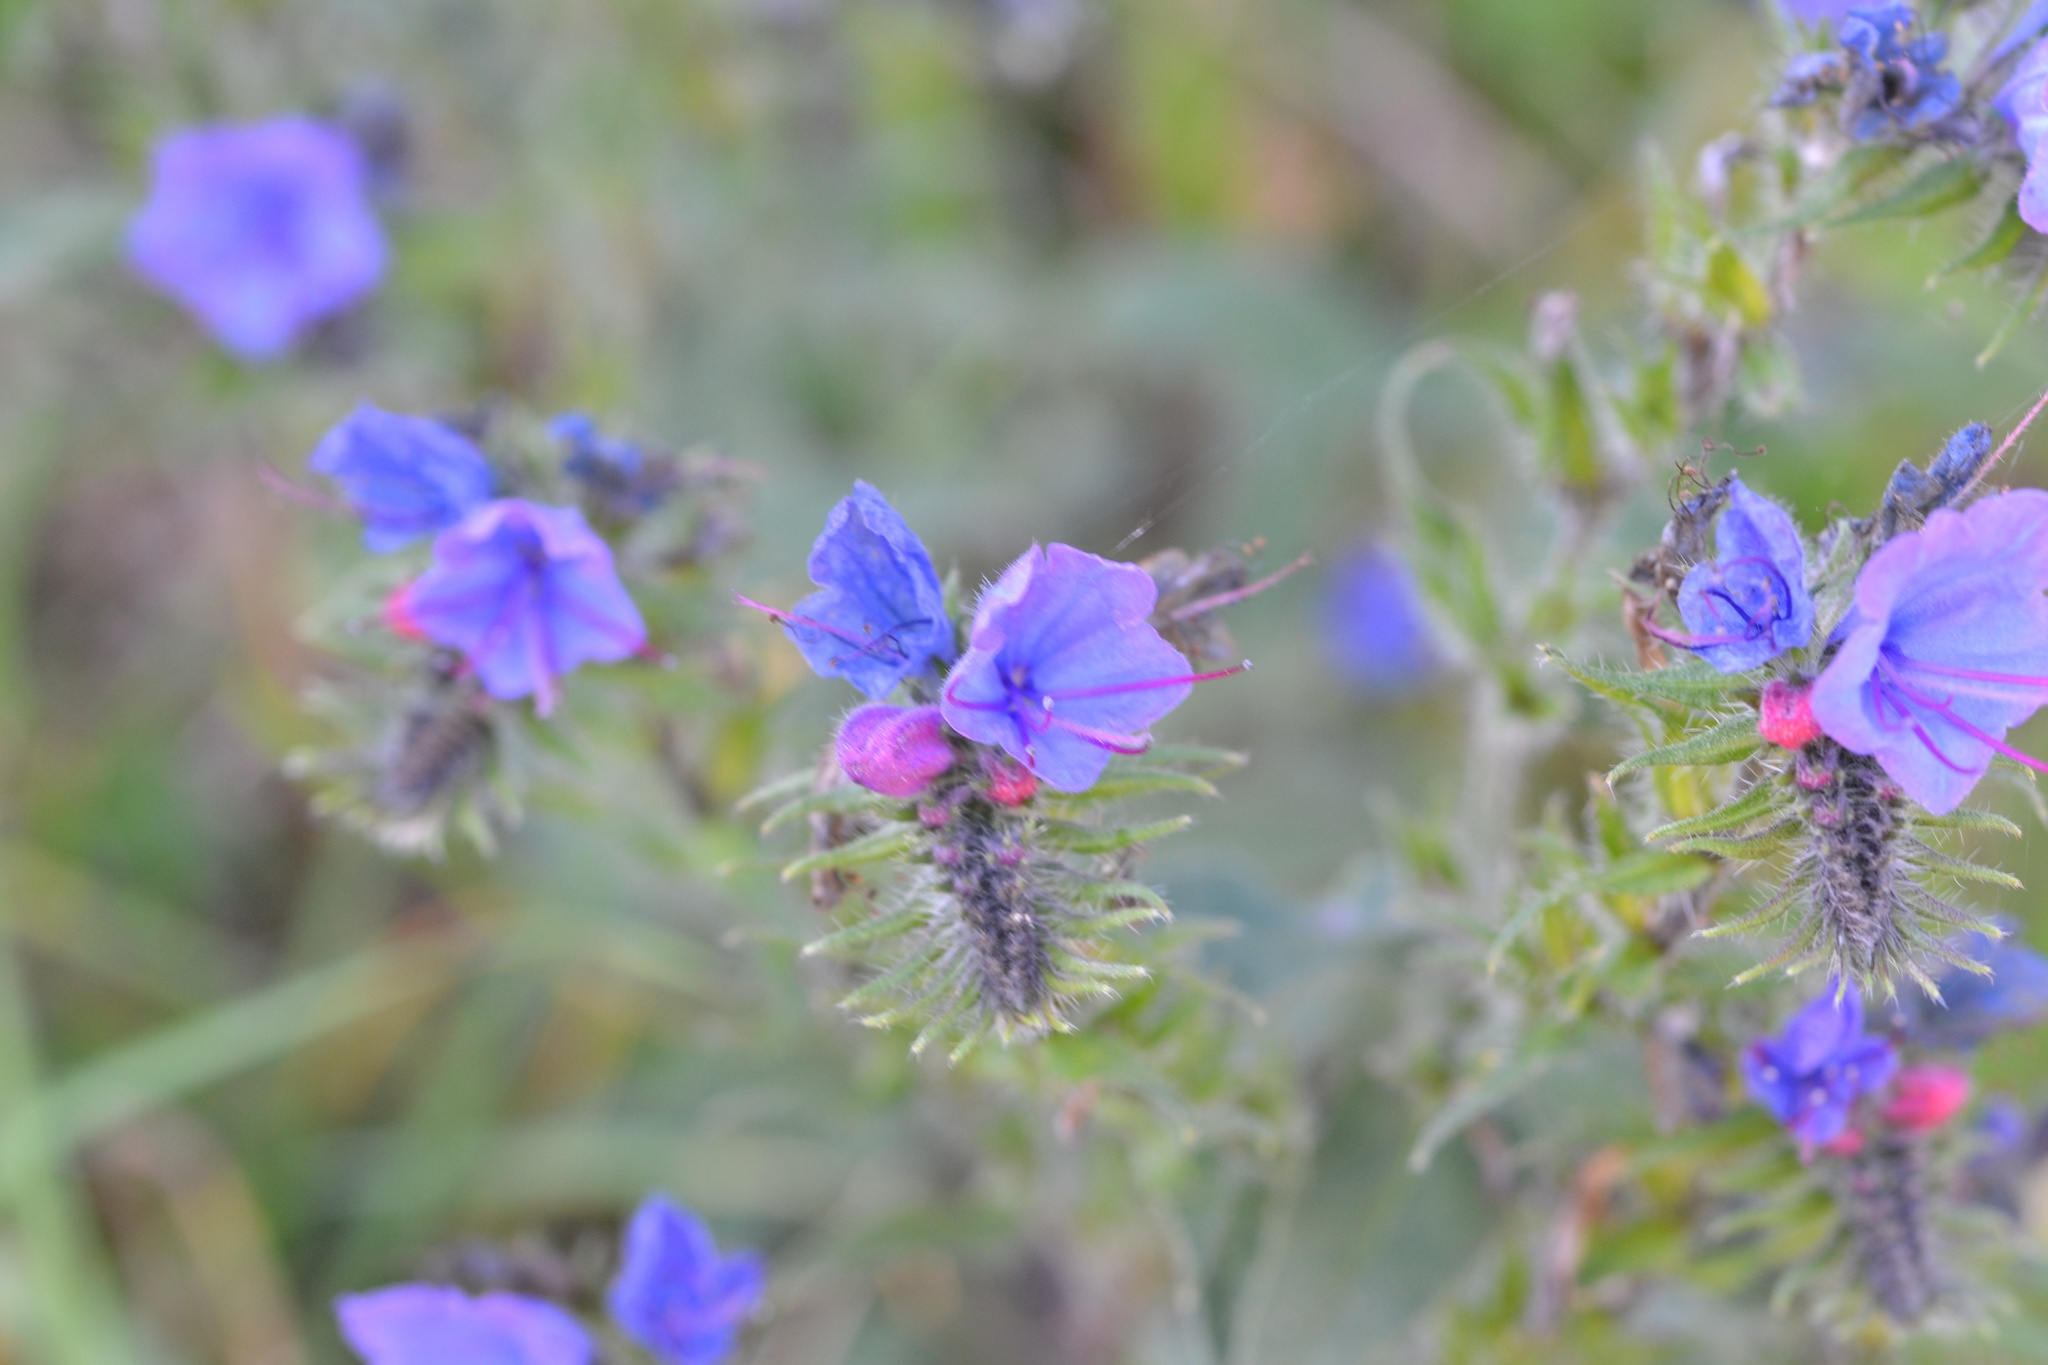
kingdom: Plantae
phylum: Tracheophyta
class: Magnoliopsida
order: Boraginales
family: Boraginaceae
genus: Echium
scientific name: Echium vulgare
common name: Common viper's bugloss
